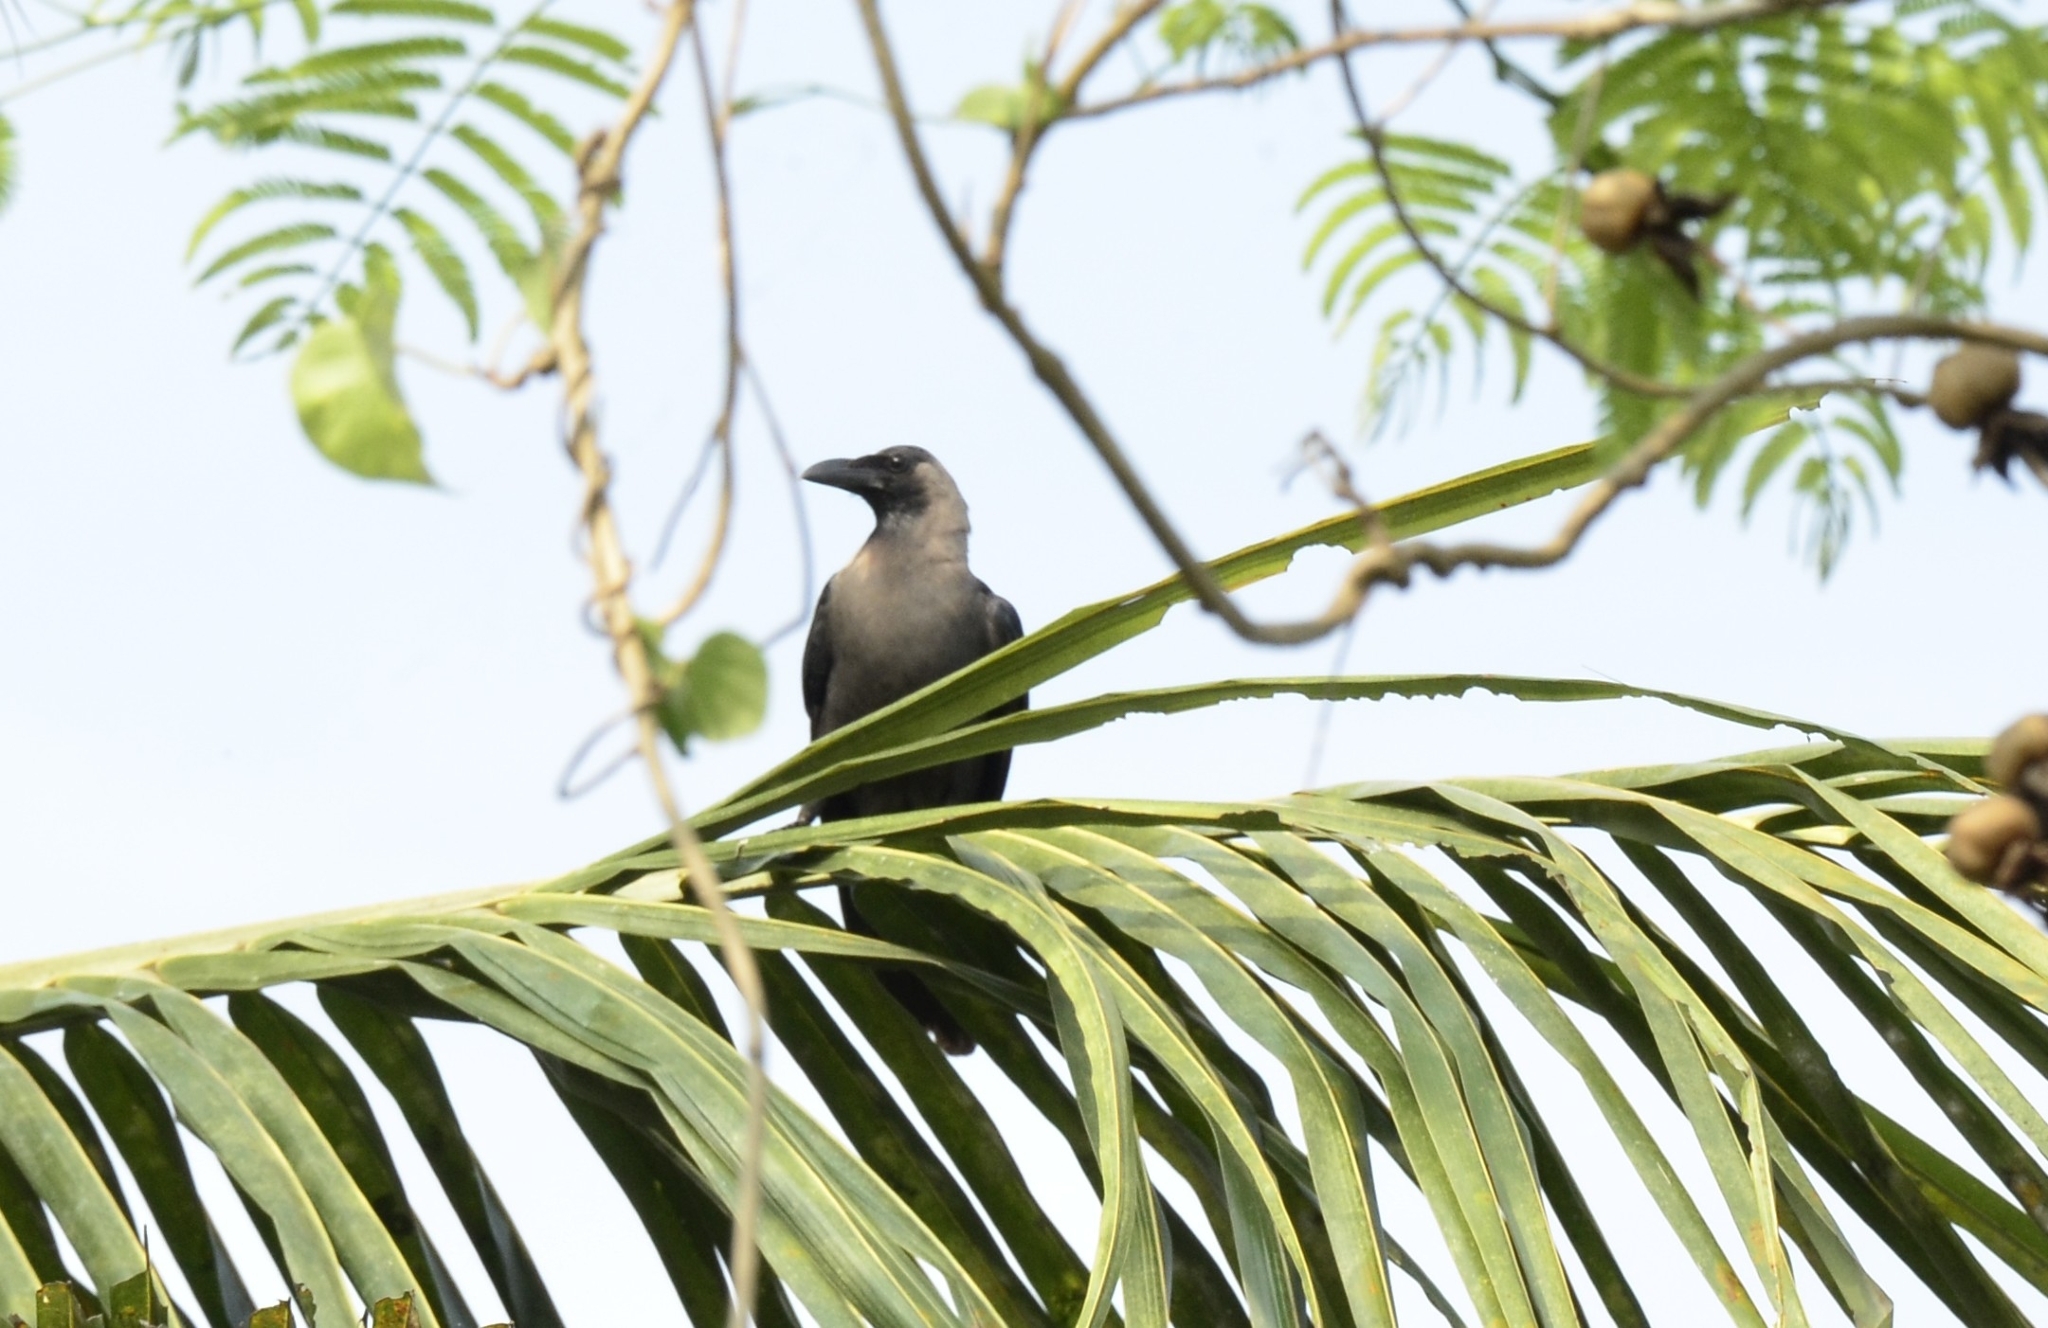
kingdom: Animalia
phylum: Chordata
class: Aves
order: Passeriformes
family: Corvidae
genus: Corvus
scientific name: Corvus splendens
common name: House crow
